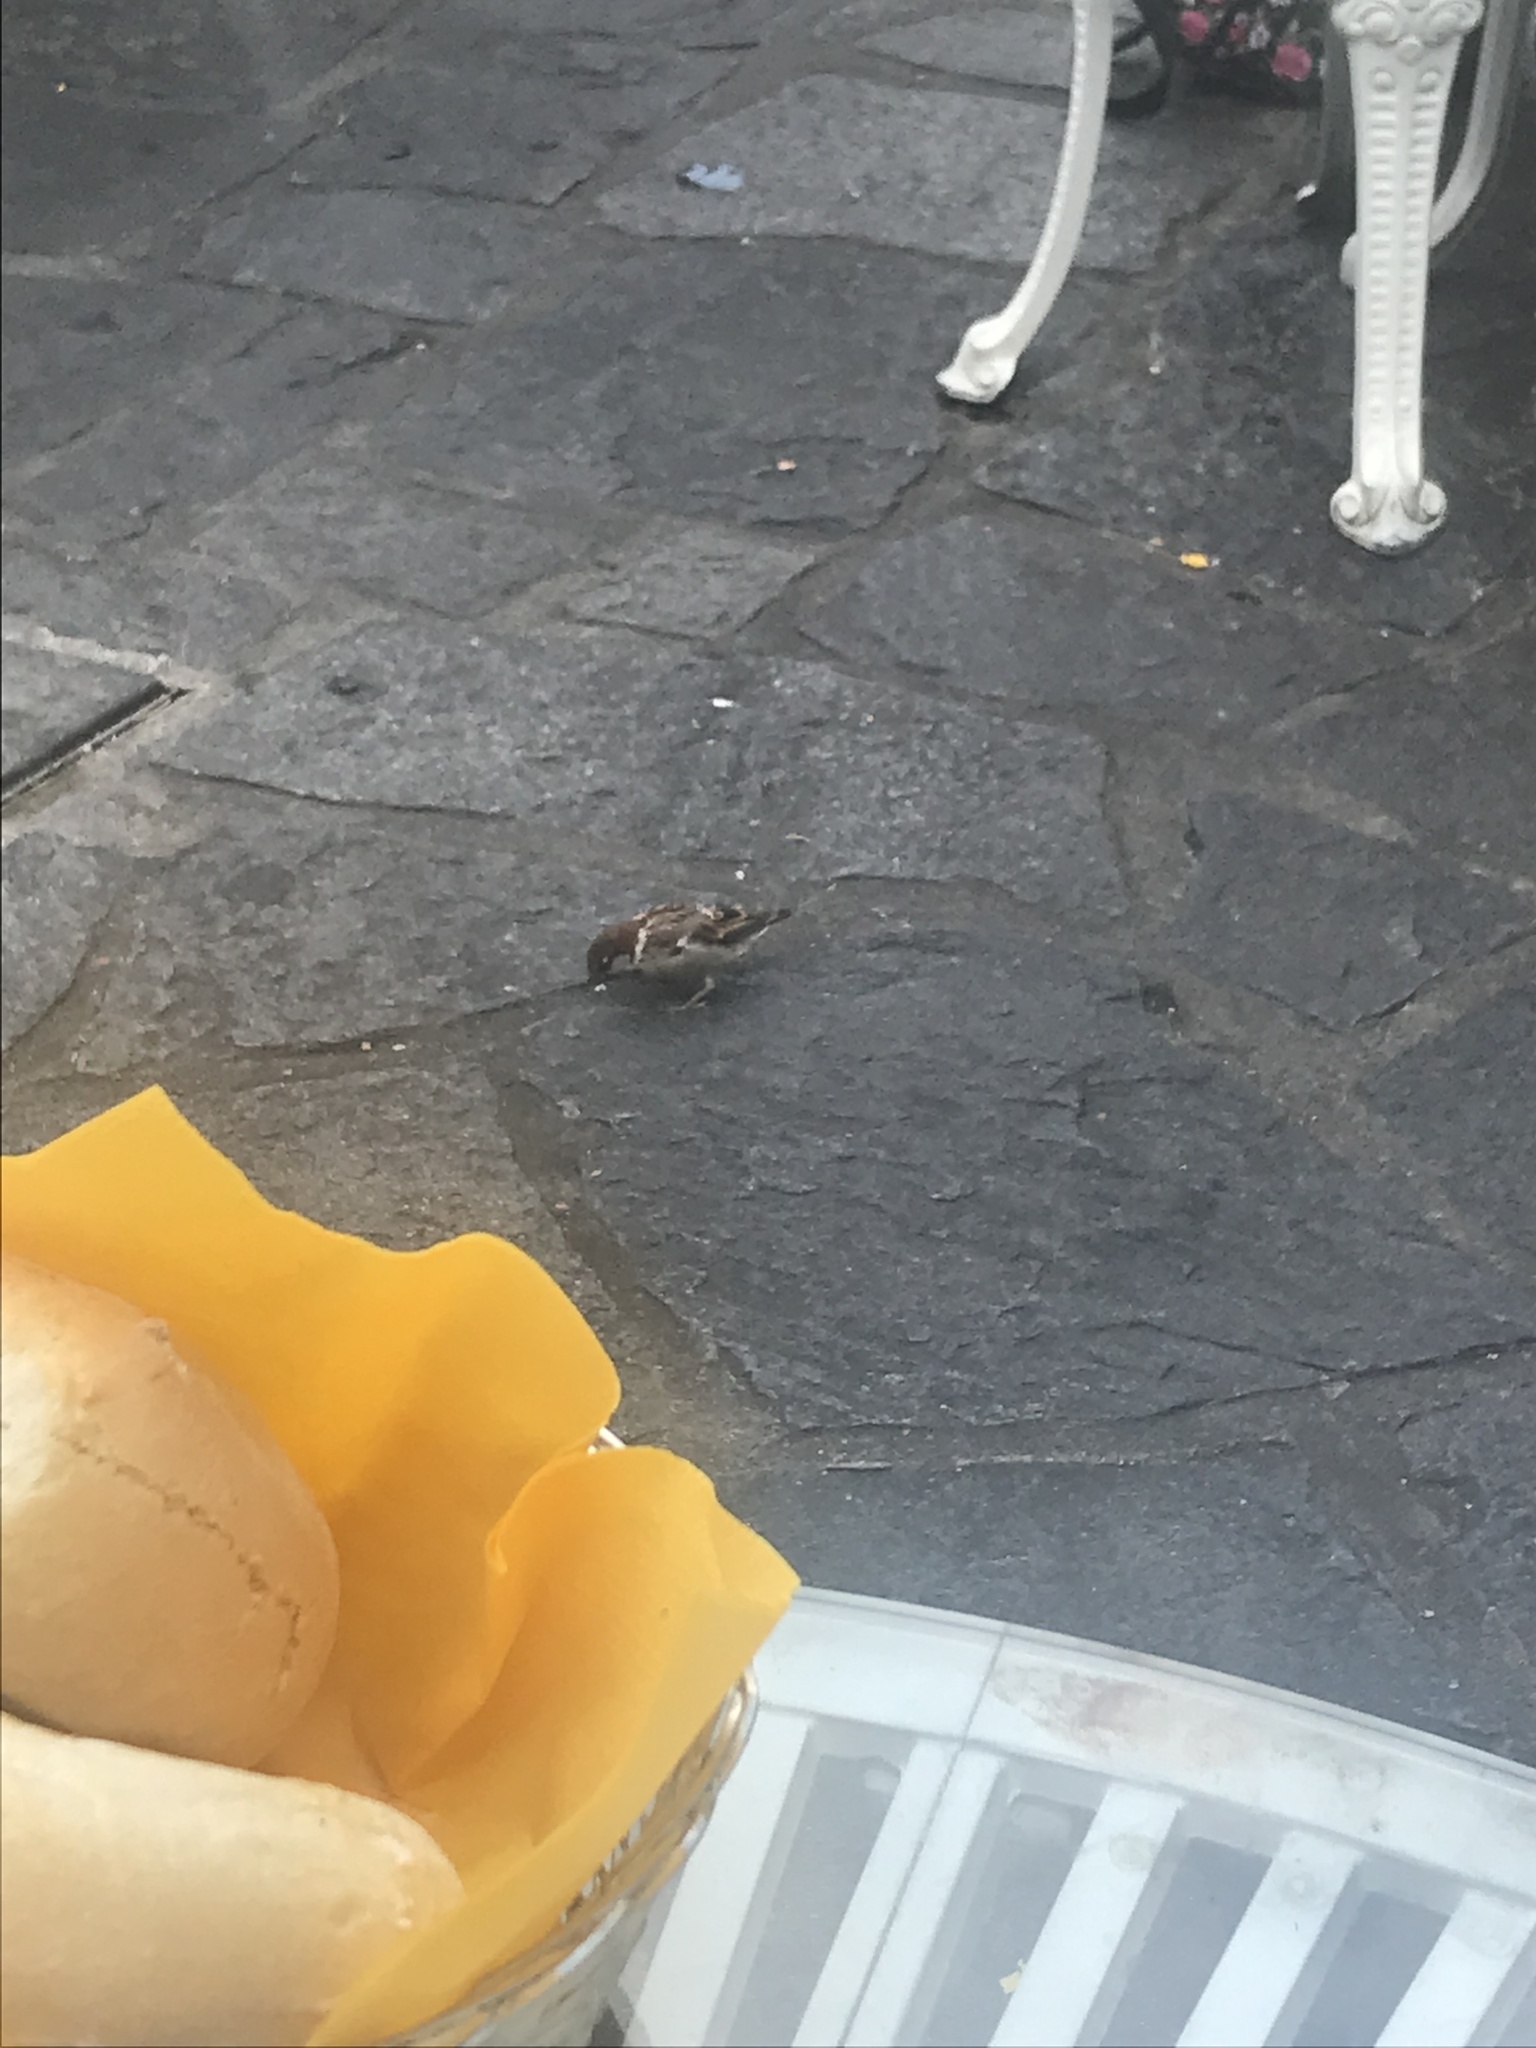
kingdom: Animalia
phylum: Chordata
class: Aves
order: Passeriformes
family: Passeridae
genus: Passer
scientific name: Passer italiae
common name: Italian sparrow
